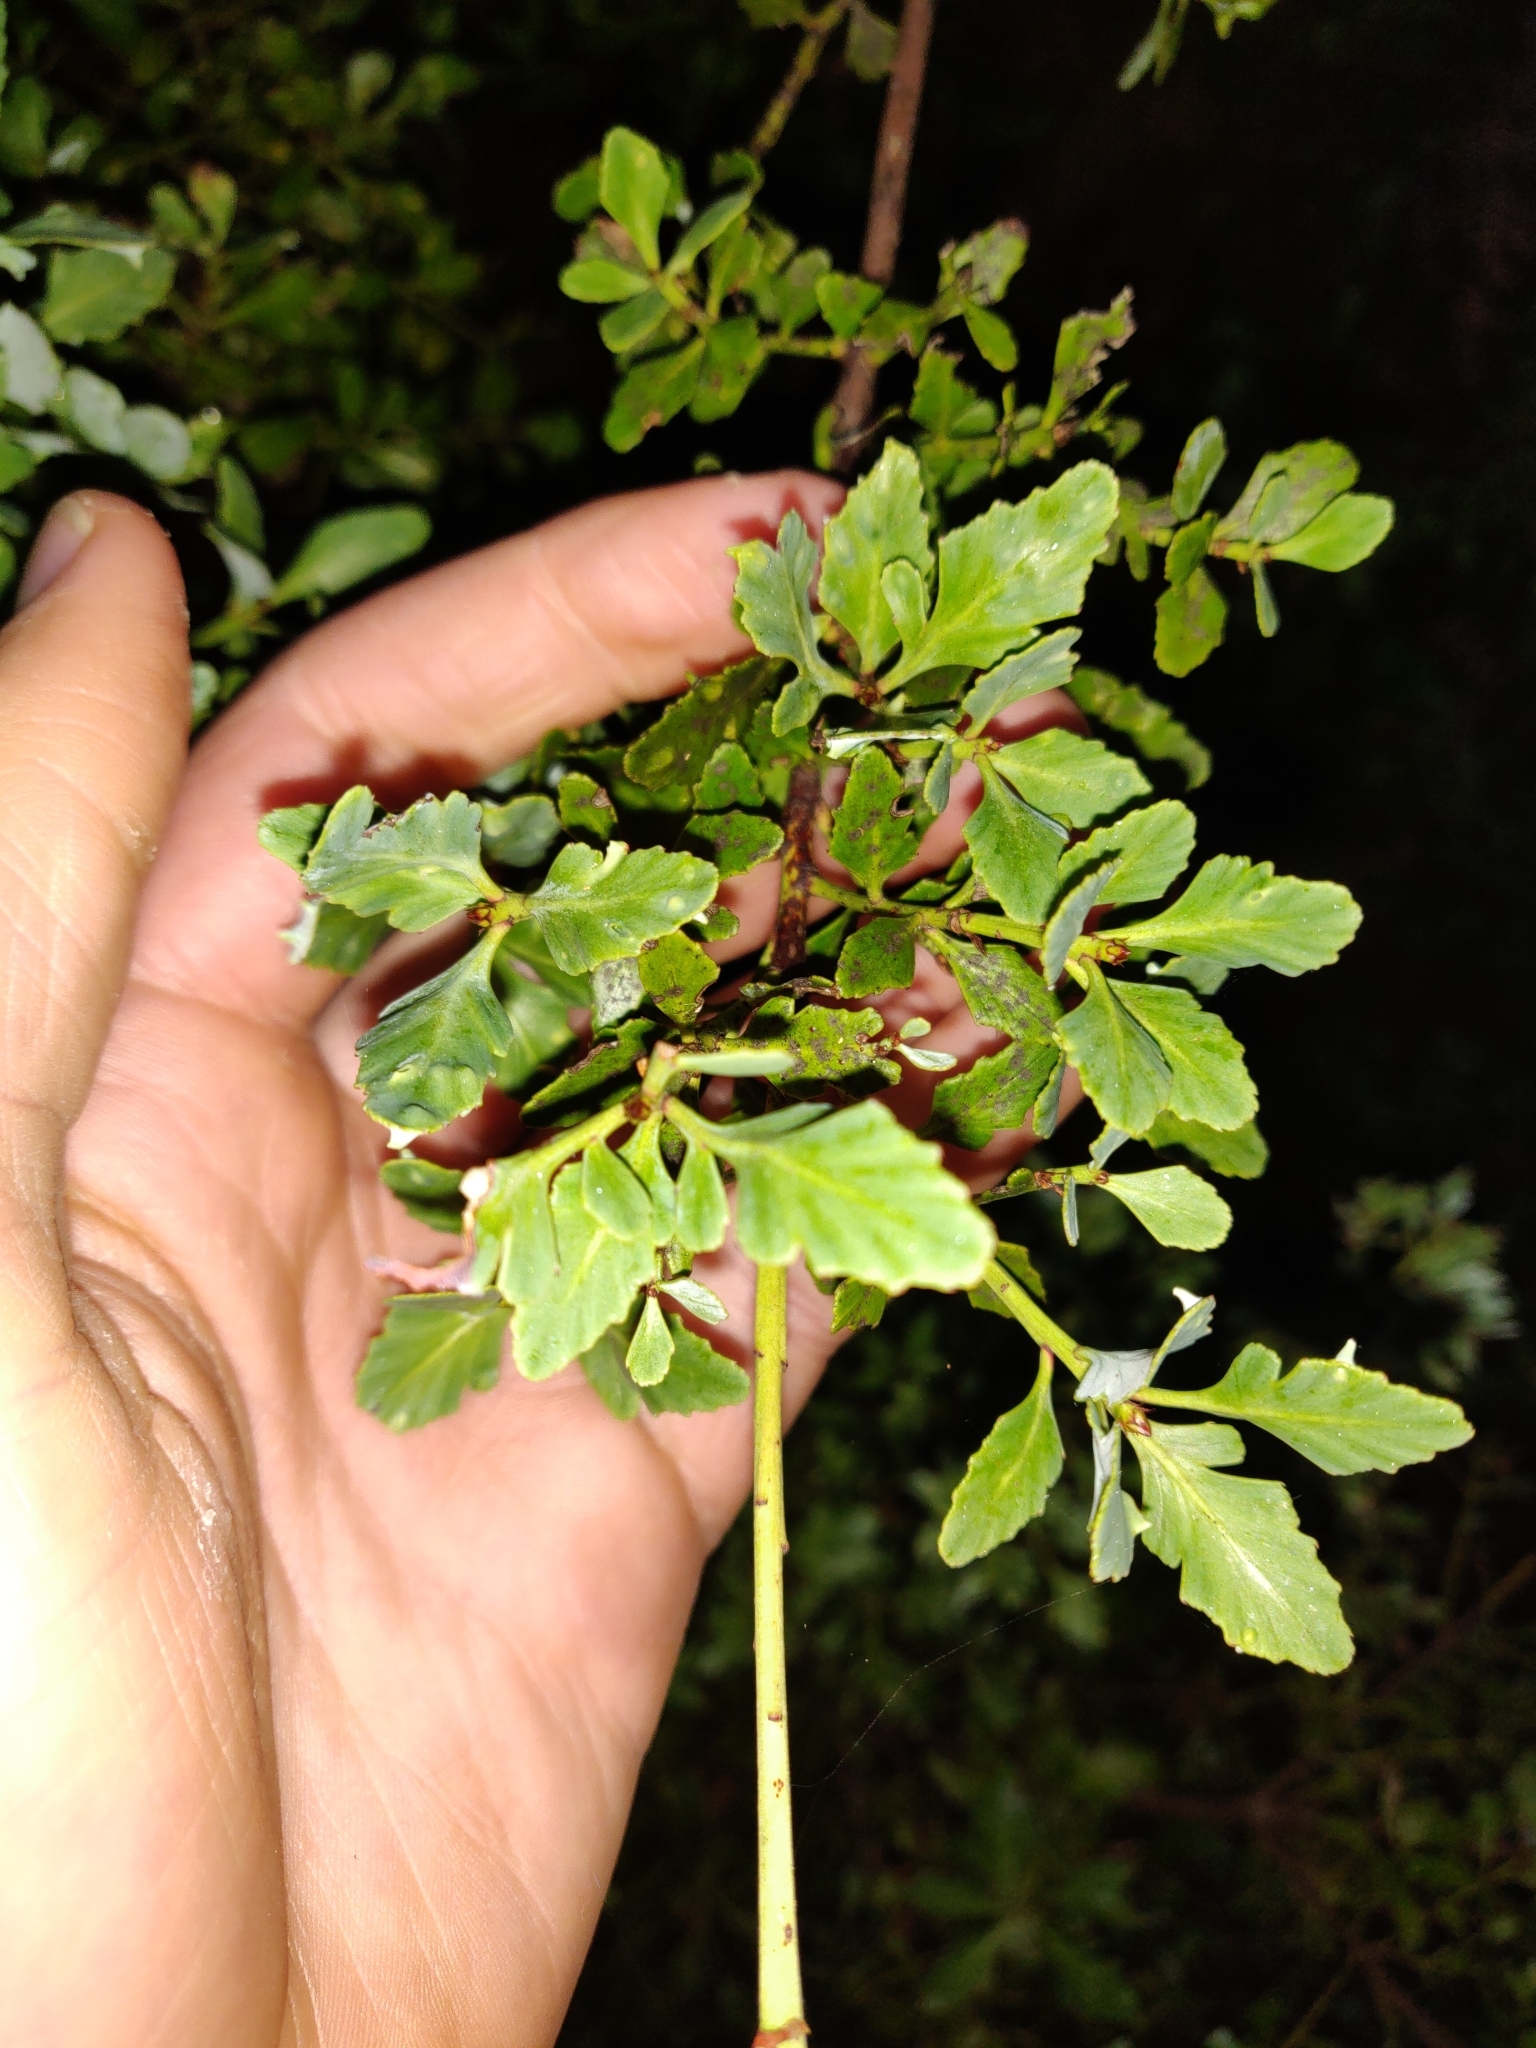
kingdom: Plantae
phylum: Tracheophyta
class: Pinopsida
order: Pinales
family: Phyllocladaceae
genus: Phyllocladus
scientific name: Phyllocladus trichomanoides
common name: Celery pine
